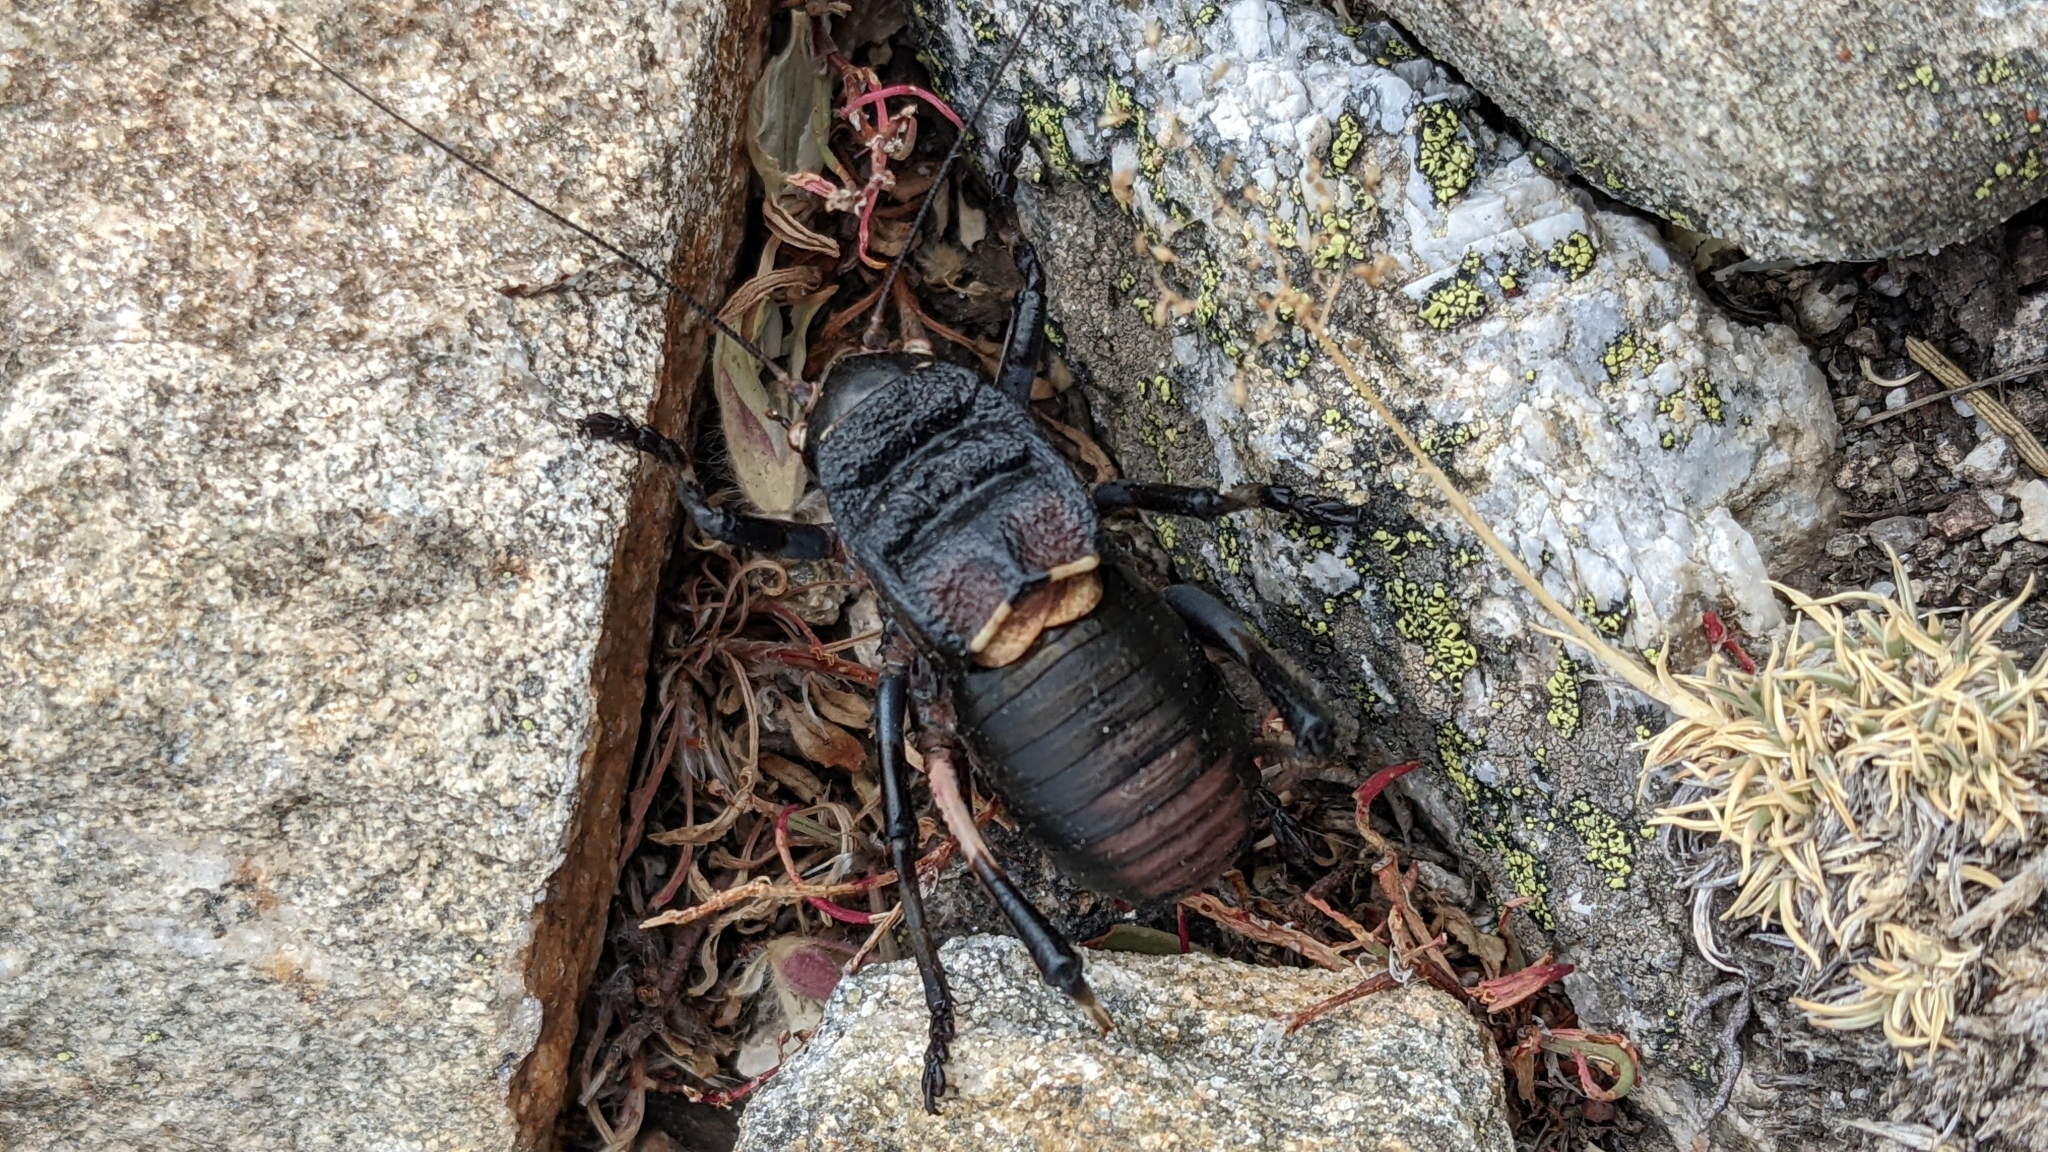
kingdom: Animalia
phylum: Arthropoda
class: Insecta
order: Orthoptera
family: Gryllidae
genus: Gryllus
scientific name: Gryllus campestris
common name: Field cricket
